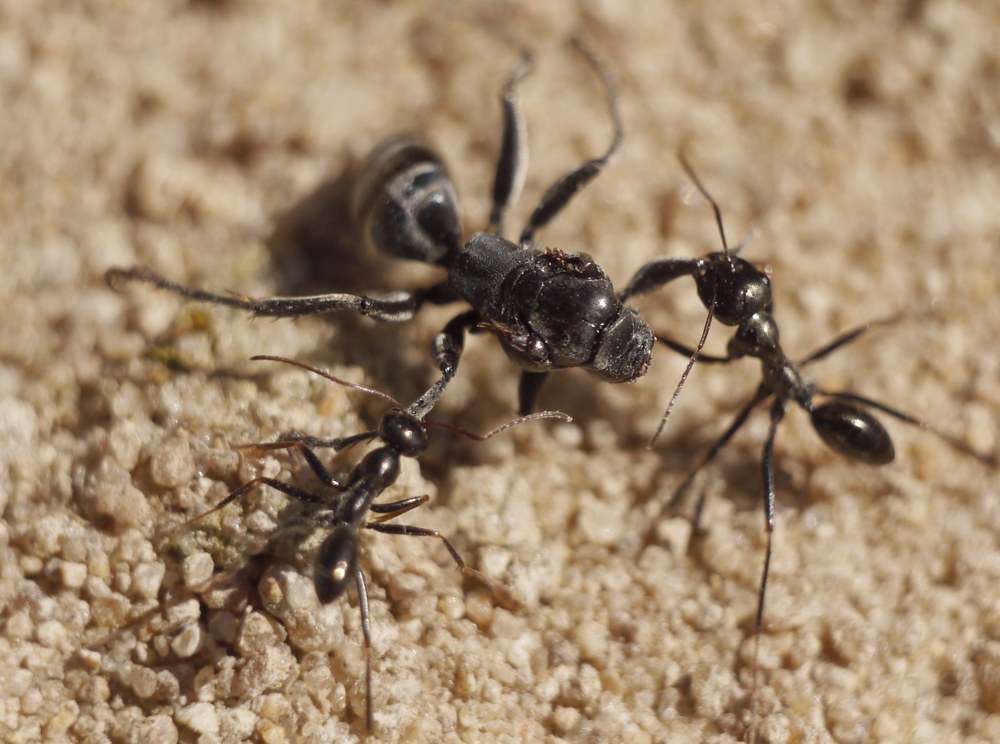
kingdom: Animalia
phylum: Arthropoda
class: Insecta
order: Hymenoptera
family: Formicidae
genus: Cataglyphis
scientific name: Cataglyphis aenescens
